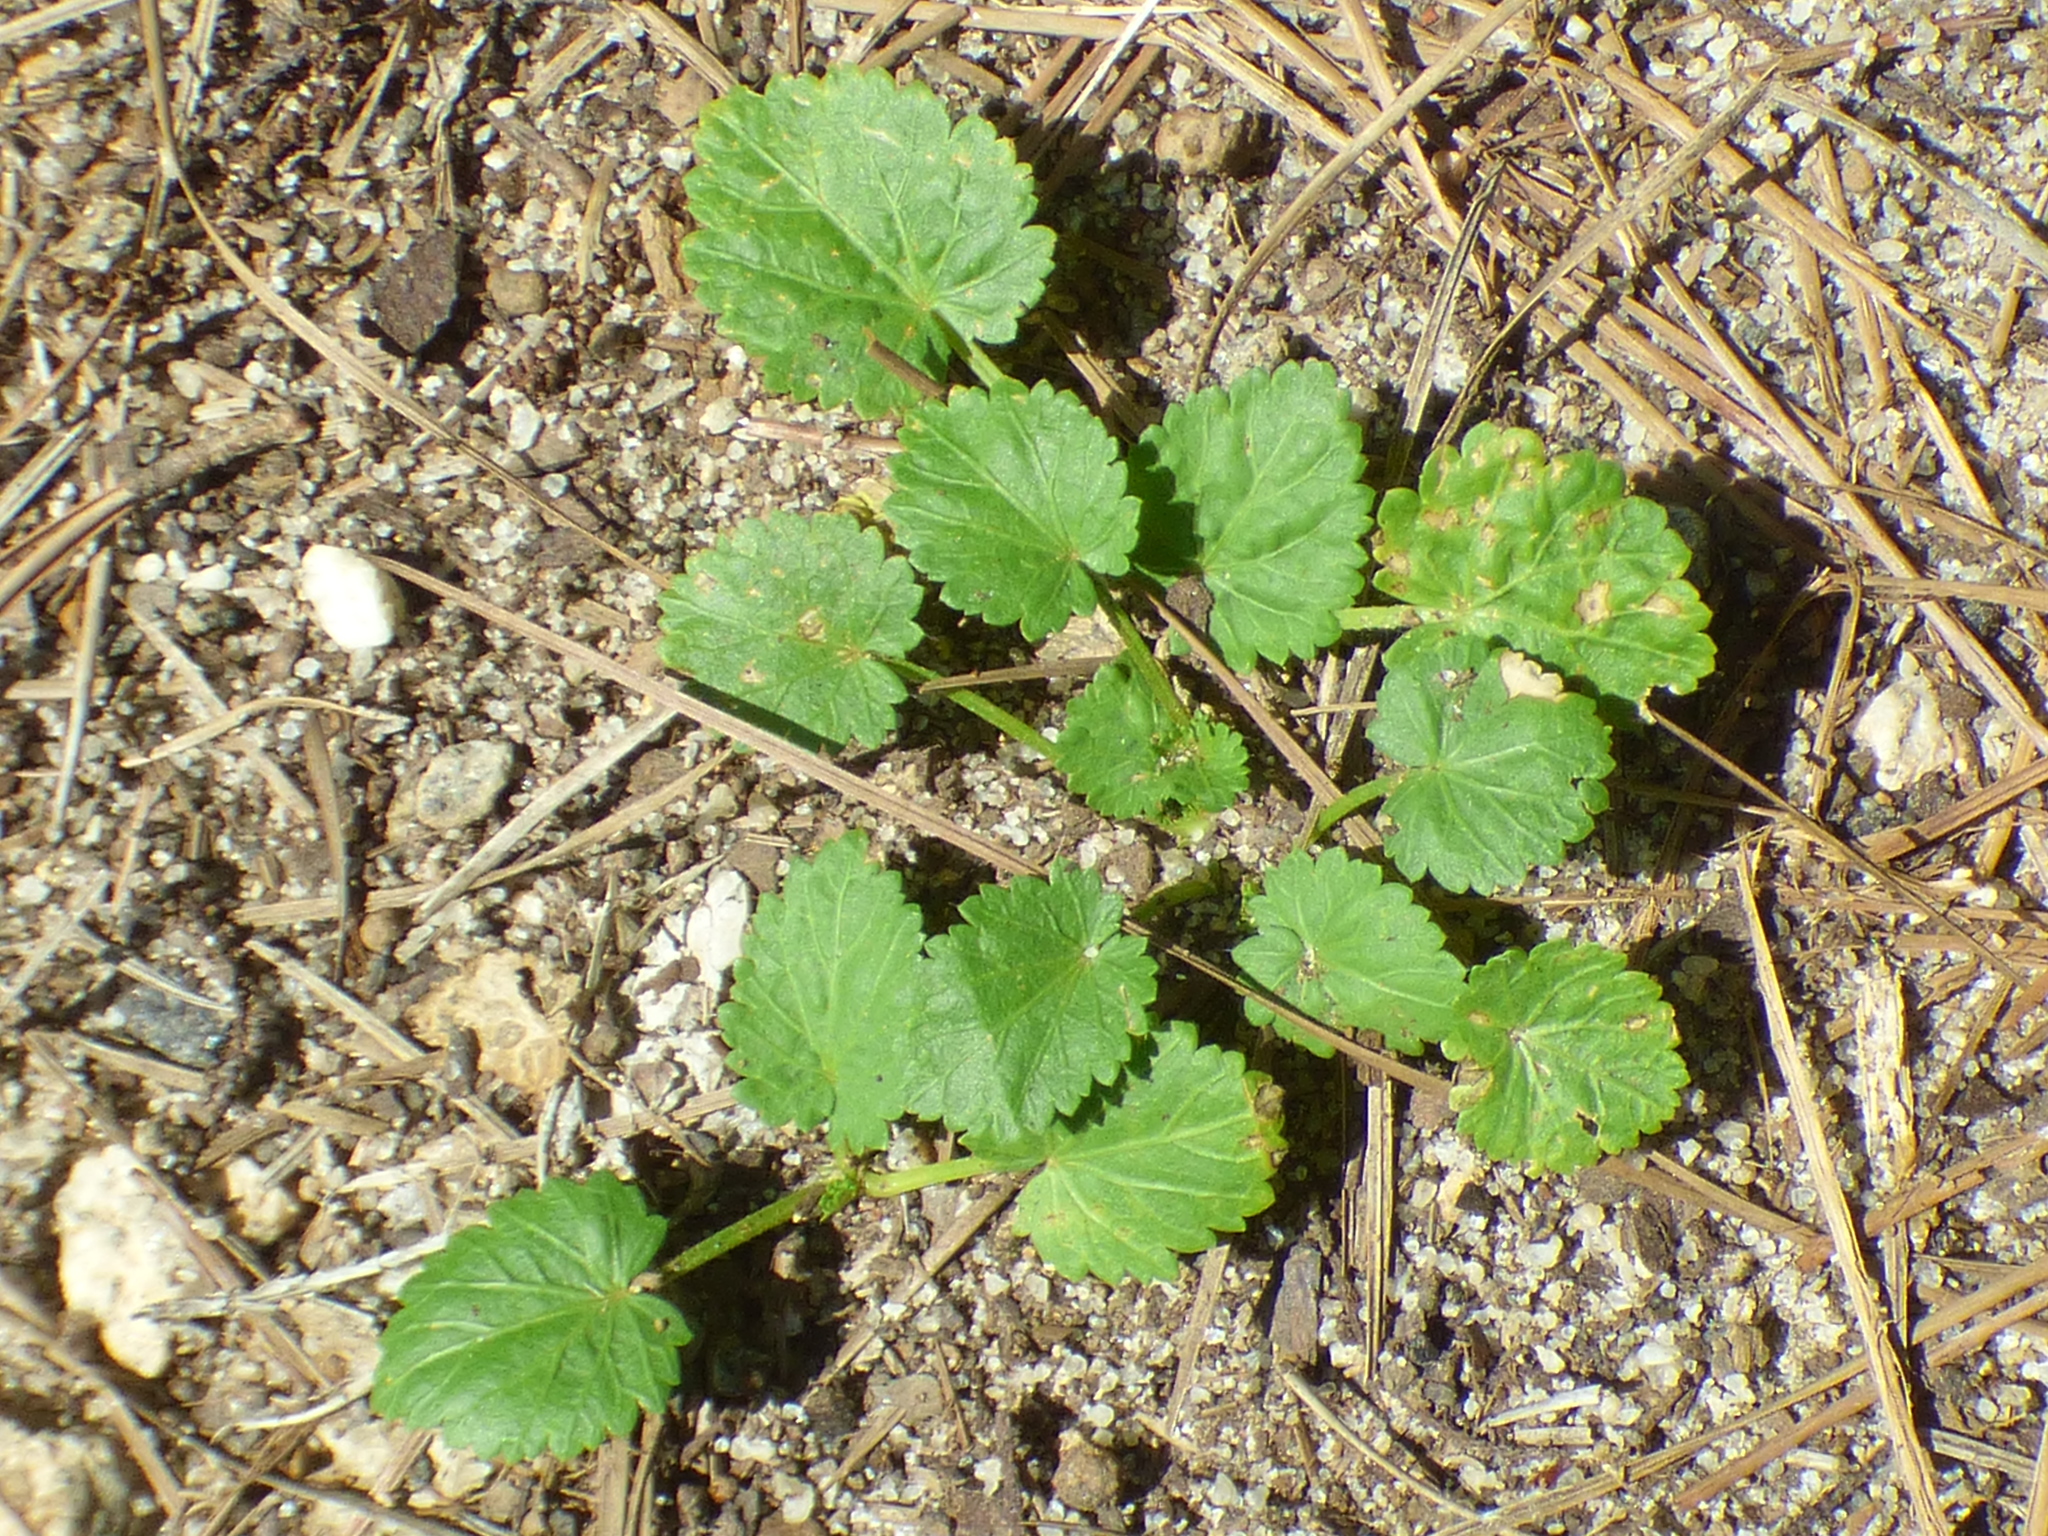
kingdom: Plantae
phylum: Tracheophyta
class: Magnoliopsida
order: Malvales
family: Malvaceae
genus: Modiola
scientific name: Modiola caroliniana
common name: Carolina bristlemallow
